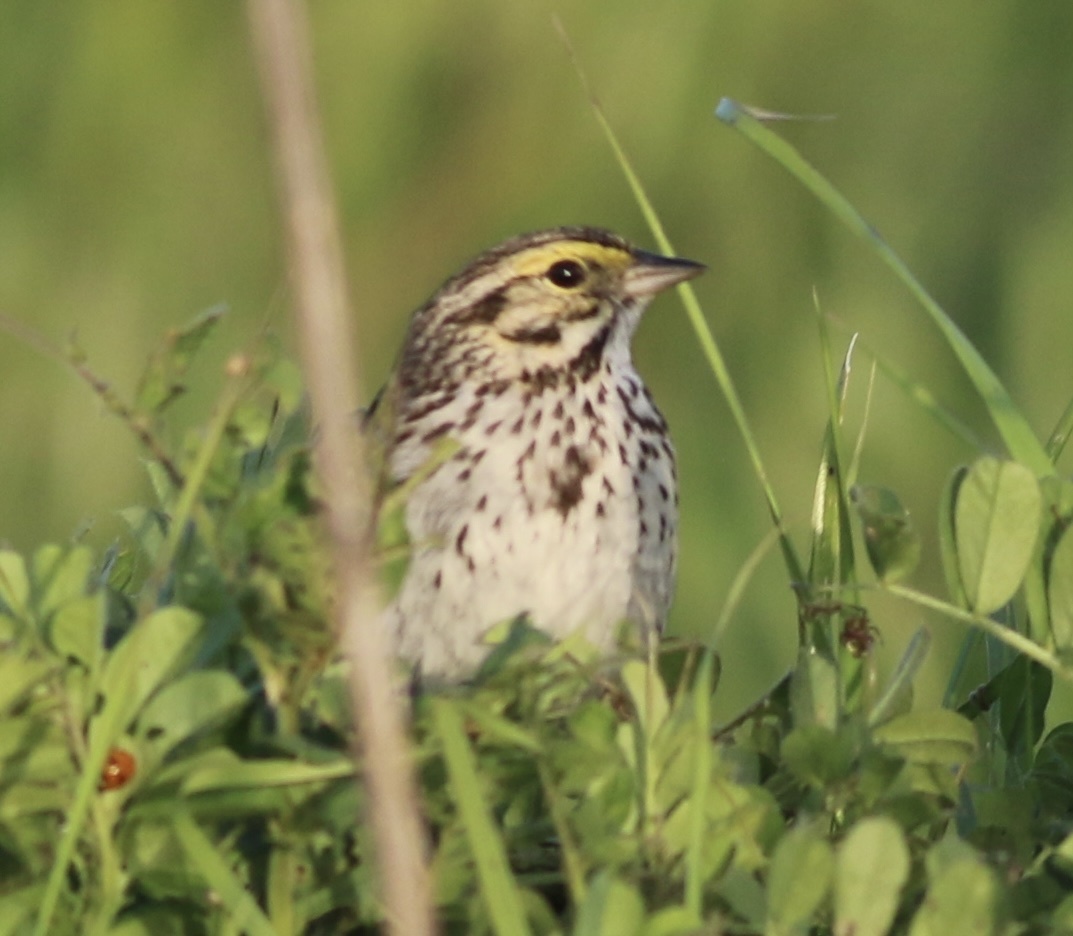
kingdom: Animalia
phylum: Chordata
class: Aves
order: Passeriformes
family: Passerellidae
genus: Passerculus
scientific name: Passerculus sandwichensis
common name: Savannah sparrow
